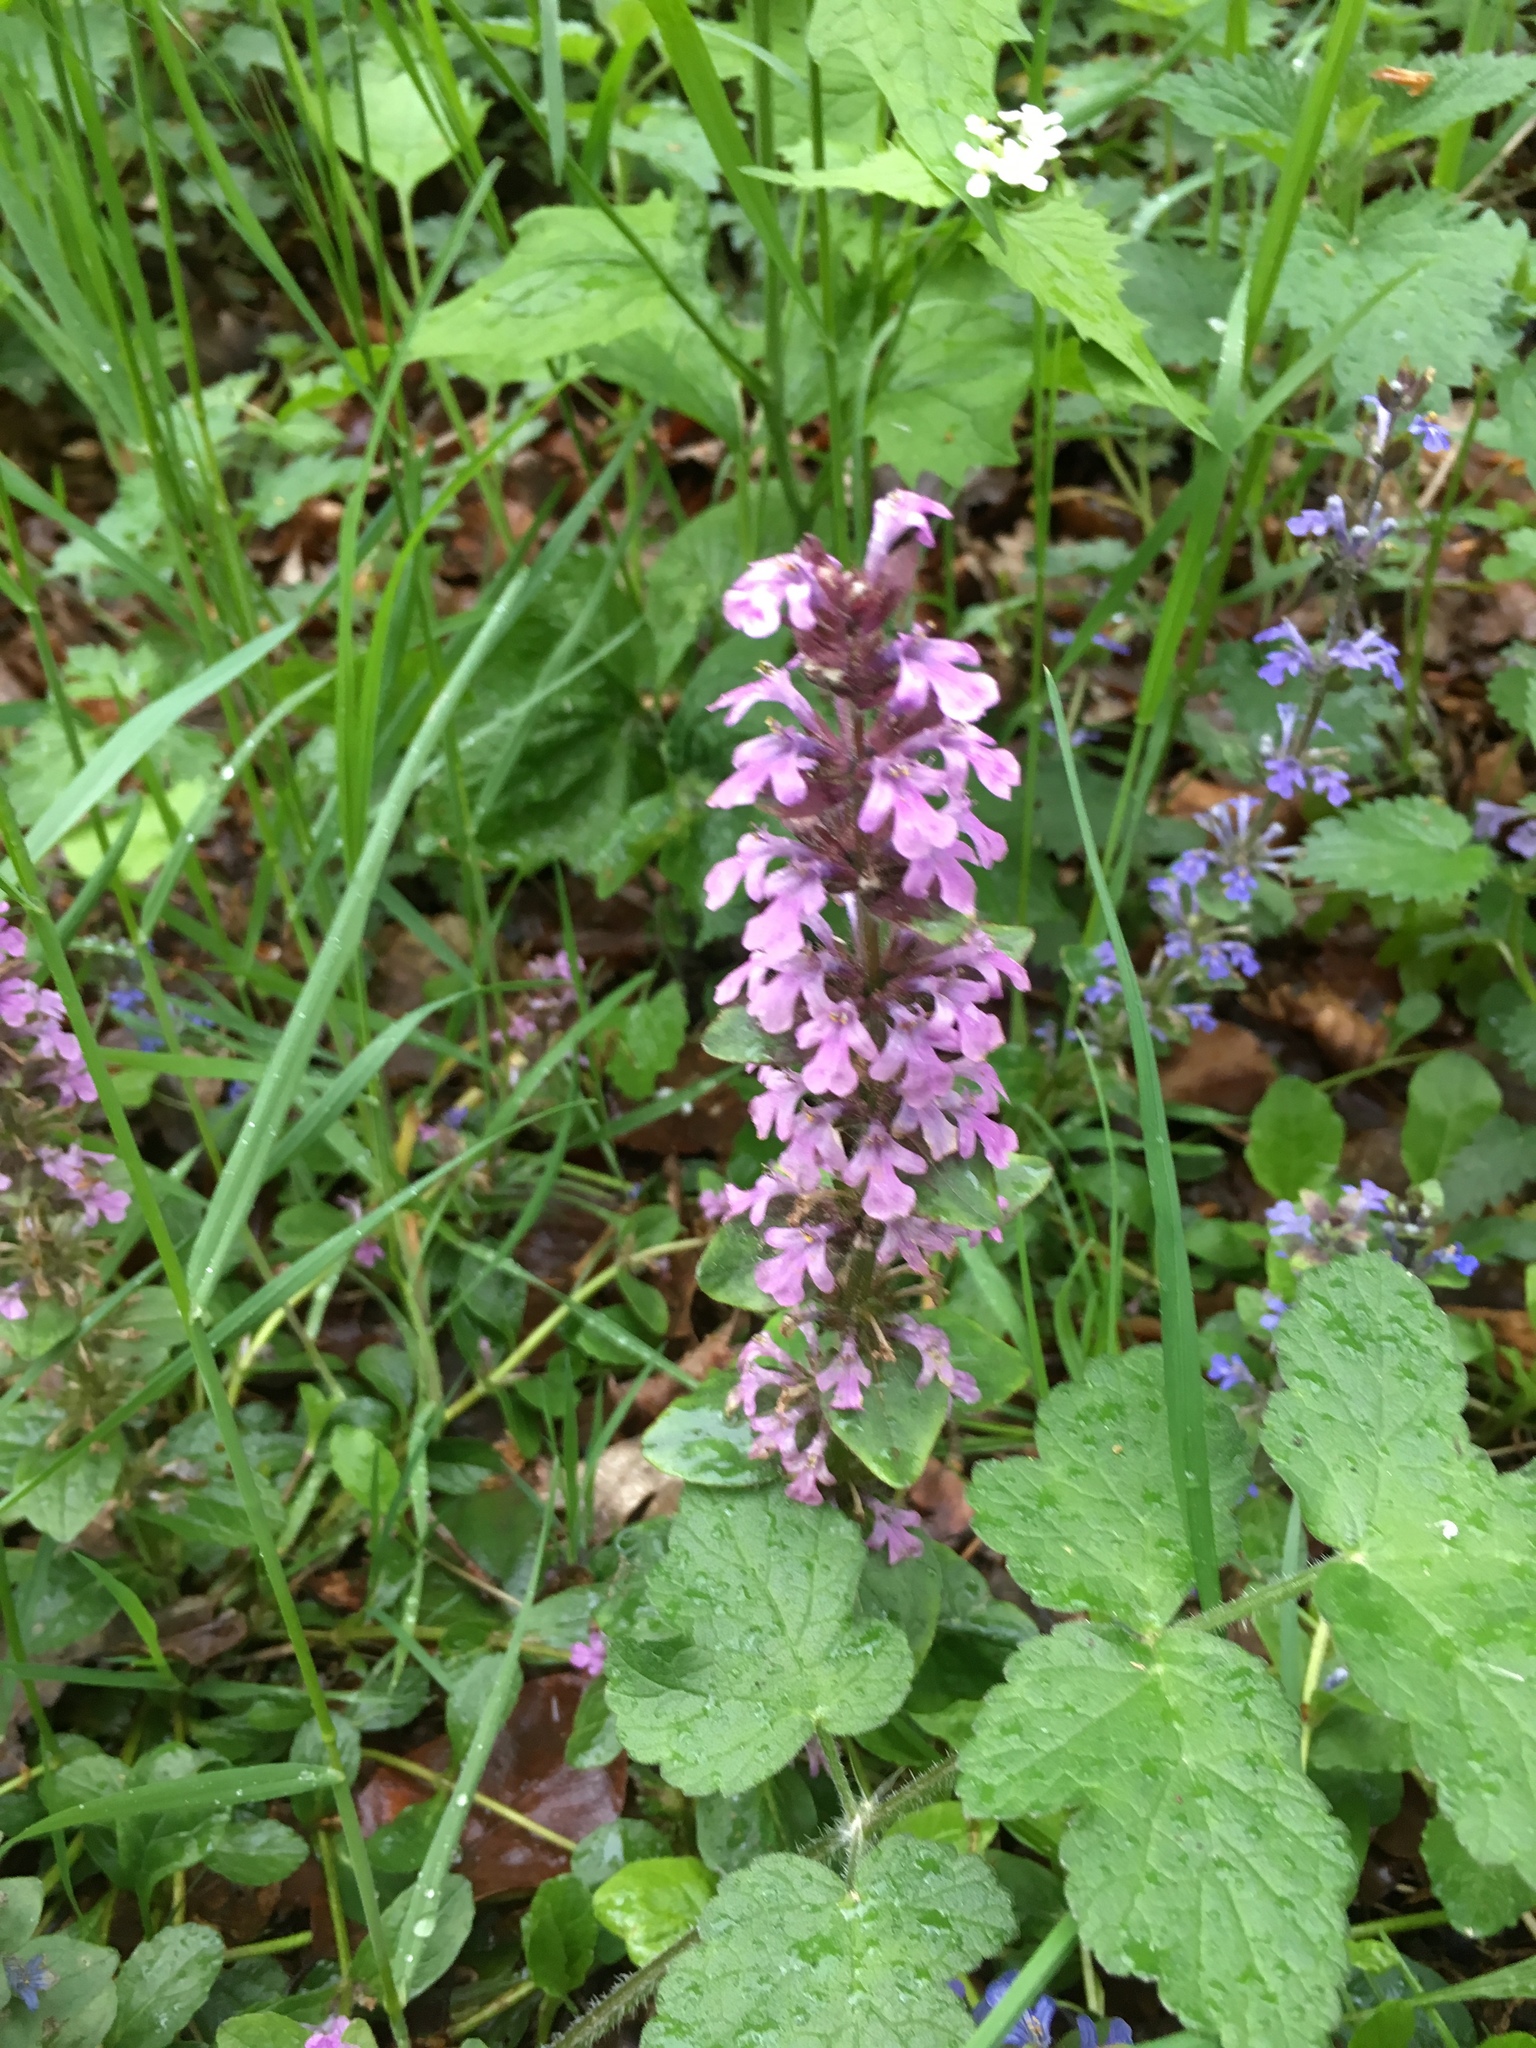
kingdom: Plantae
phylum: Tracheophyta
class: Magnoliopsida
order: Lamiales
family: Lamiaceae
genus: Ajuga
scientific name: Ajuga reptans
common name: Bugle
